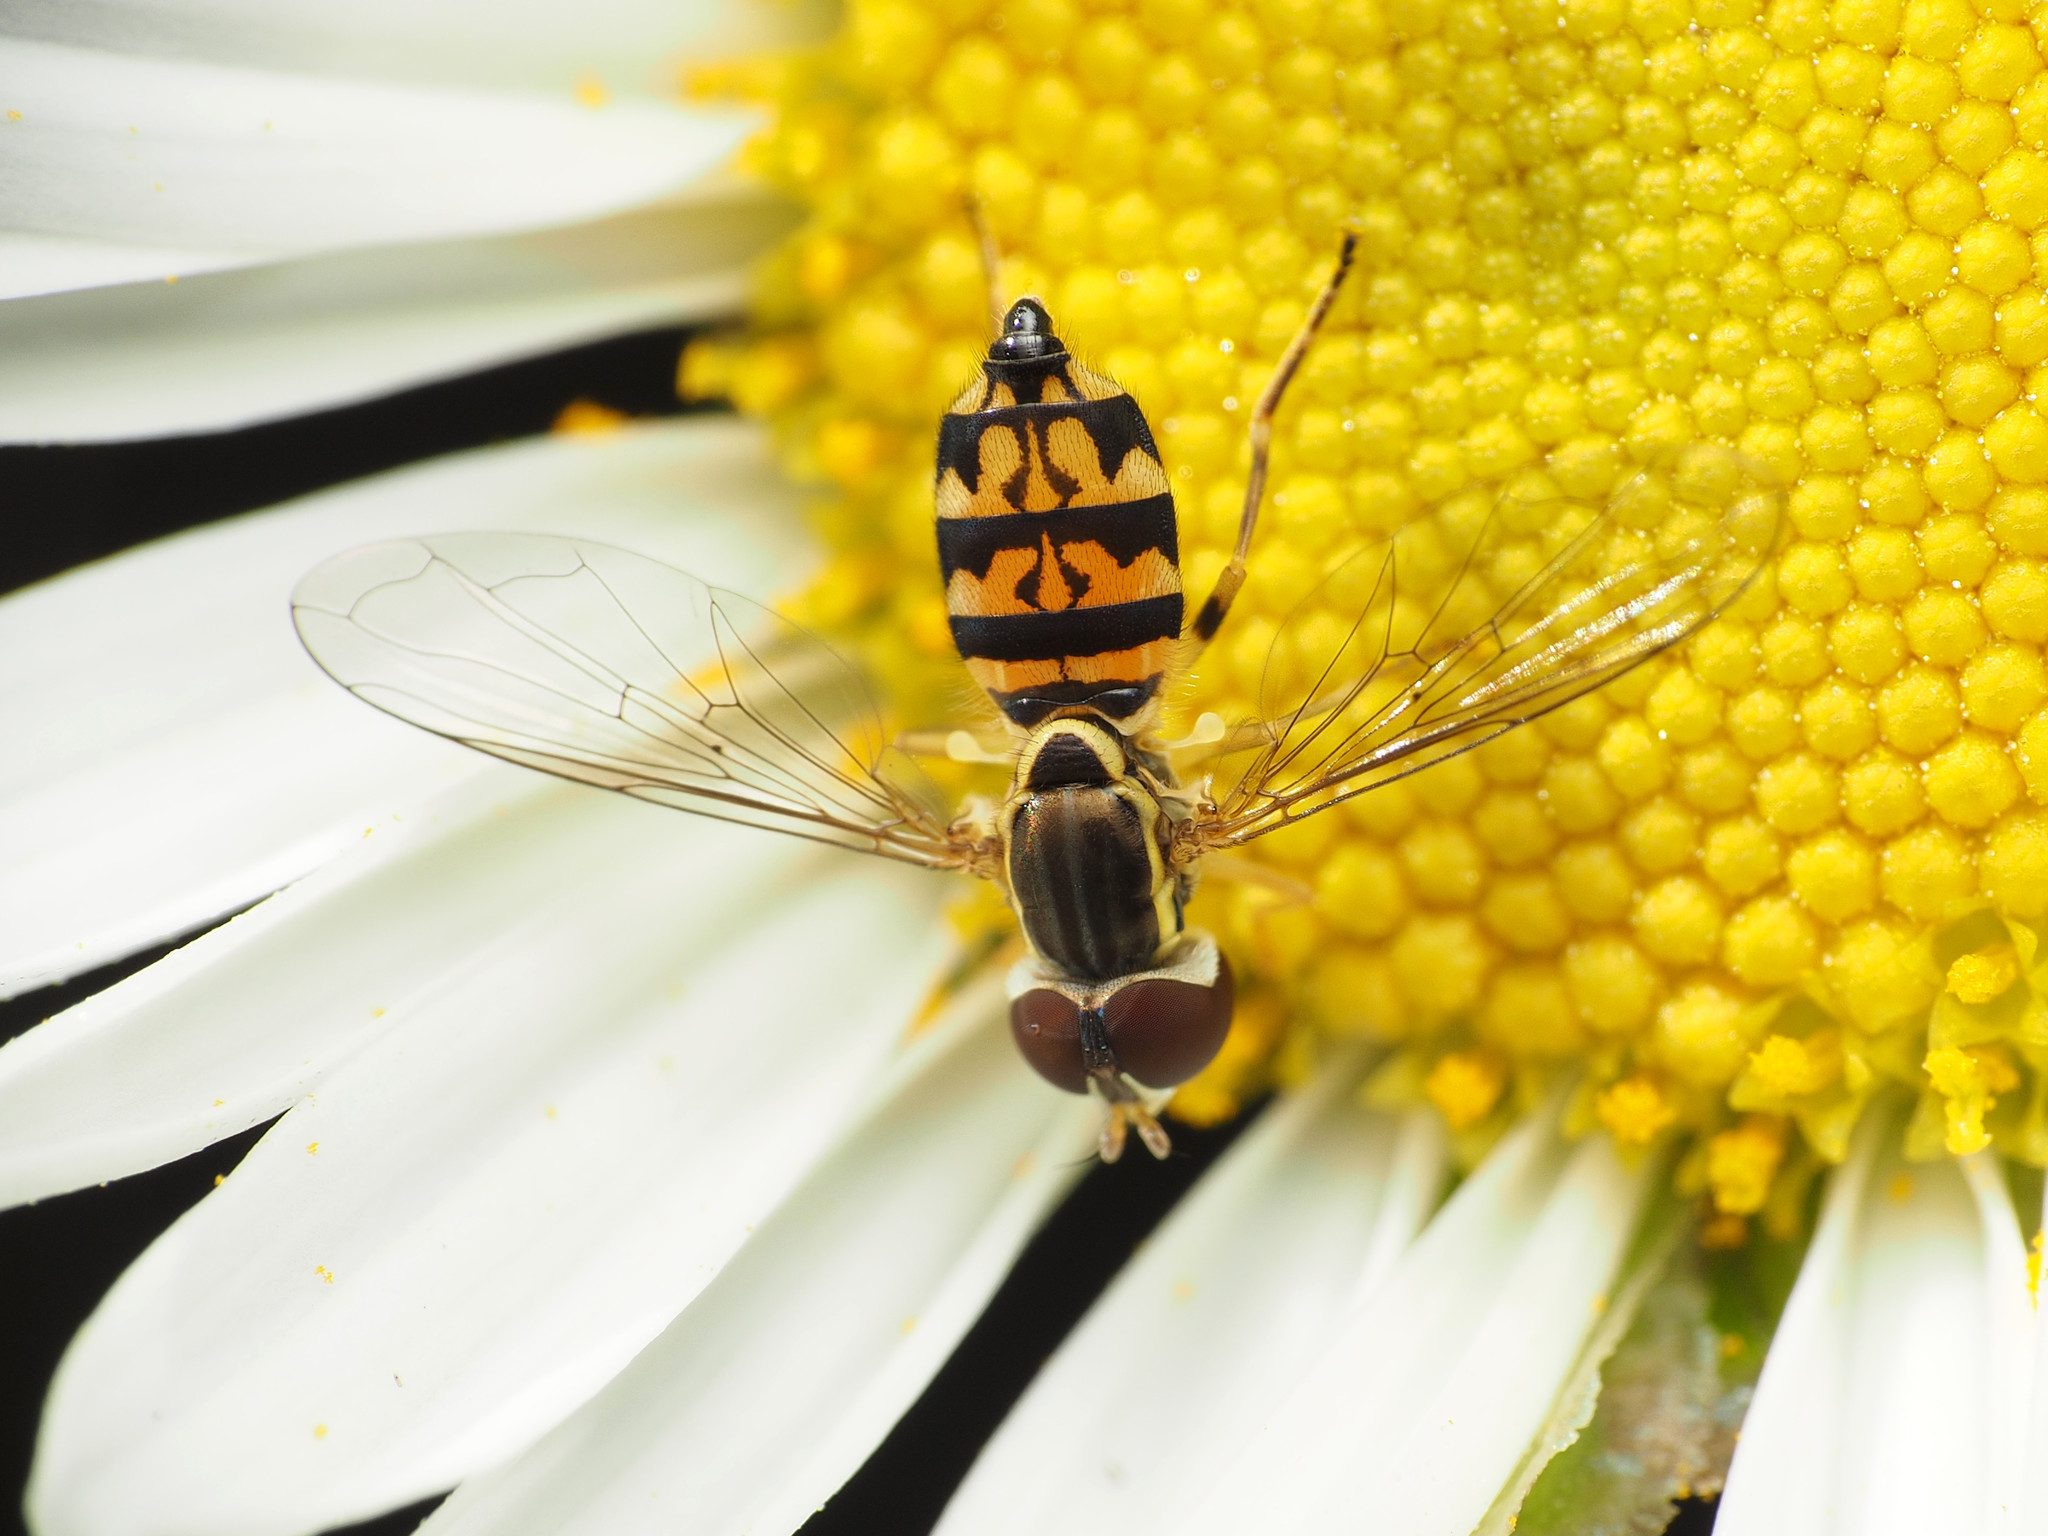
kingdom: Animalia
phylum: Arthropoda
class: Insecta
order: Diptera
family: Syrphidae
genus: Toxomerus
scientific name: Toxomerus geminatus
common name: Eastern calligrapher
